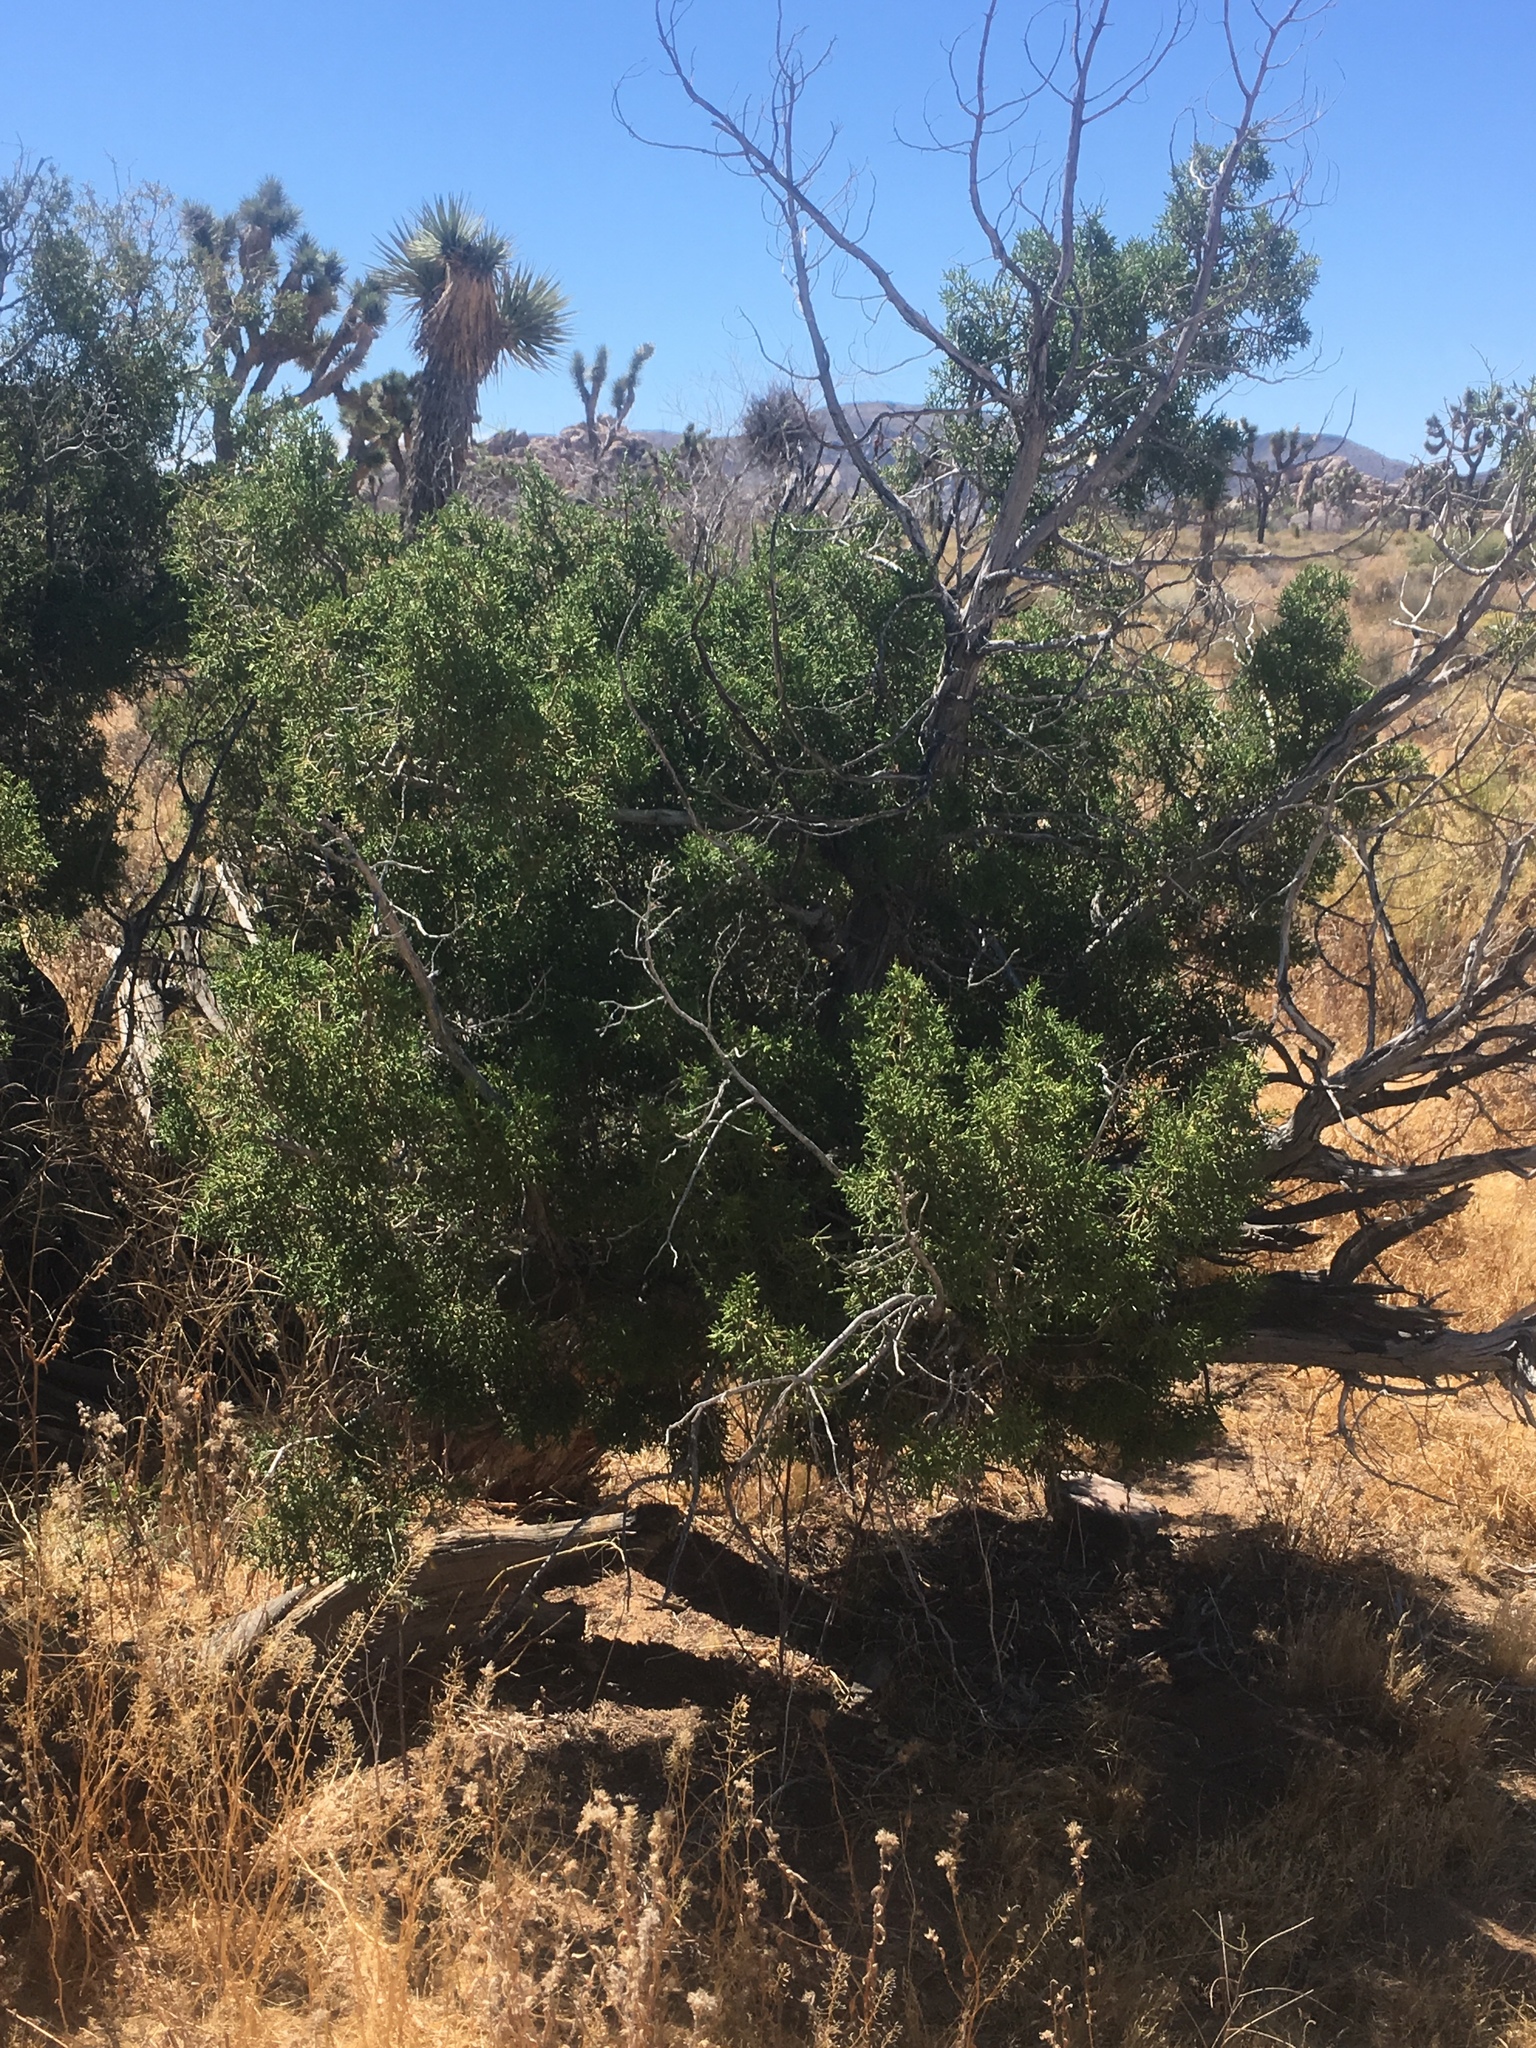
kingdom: Plantae
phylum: Tracheophyta
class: Pinopsida
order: Pinales
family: Cupressaceae
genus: Juniperus
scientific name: Juniperus californica
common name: California juniper
